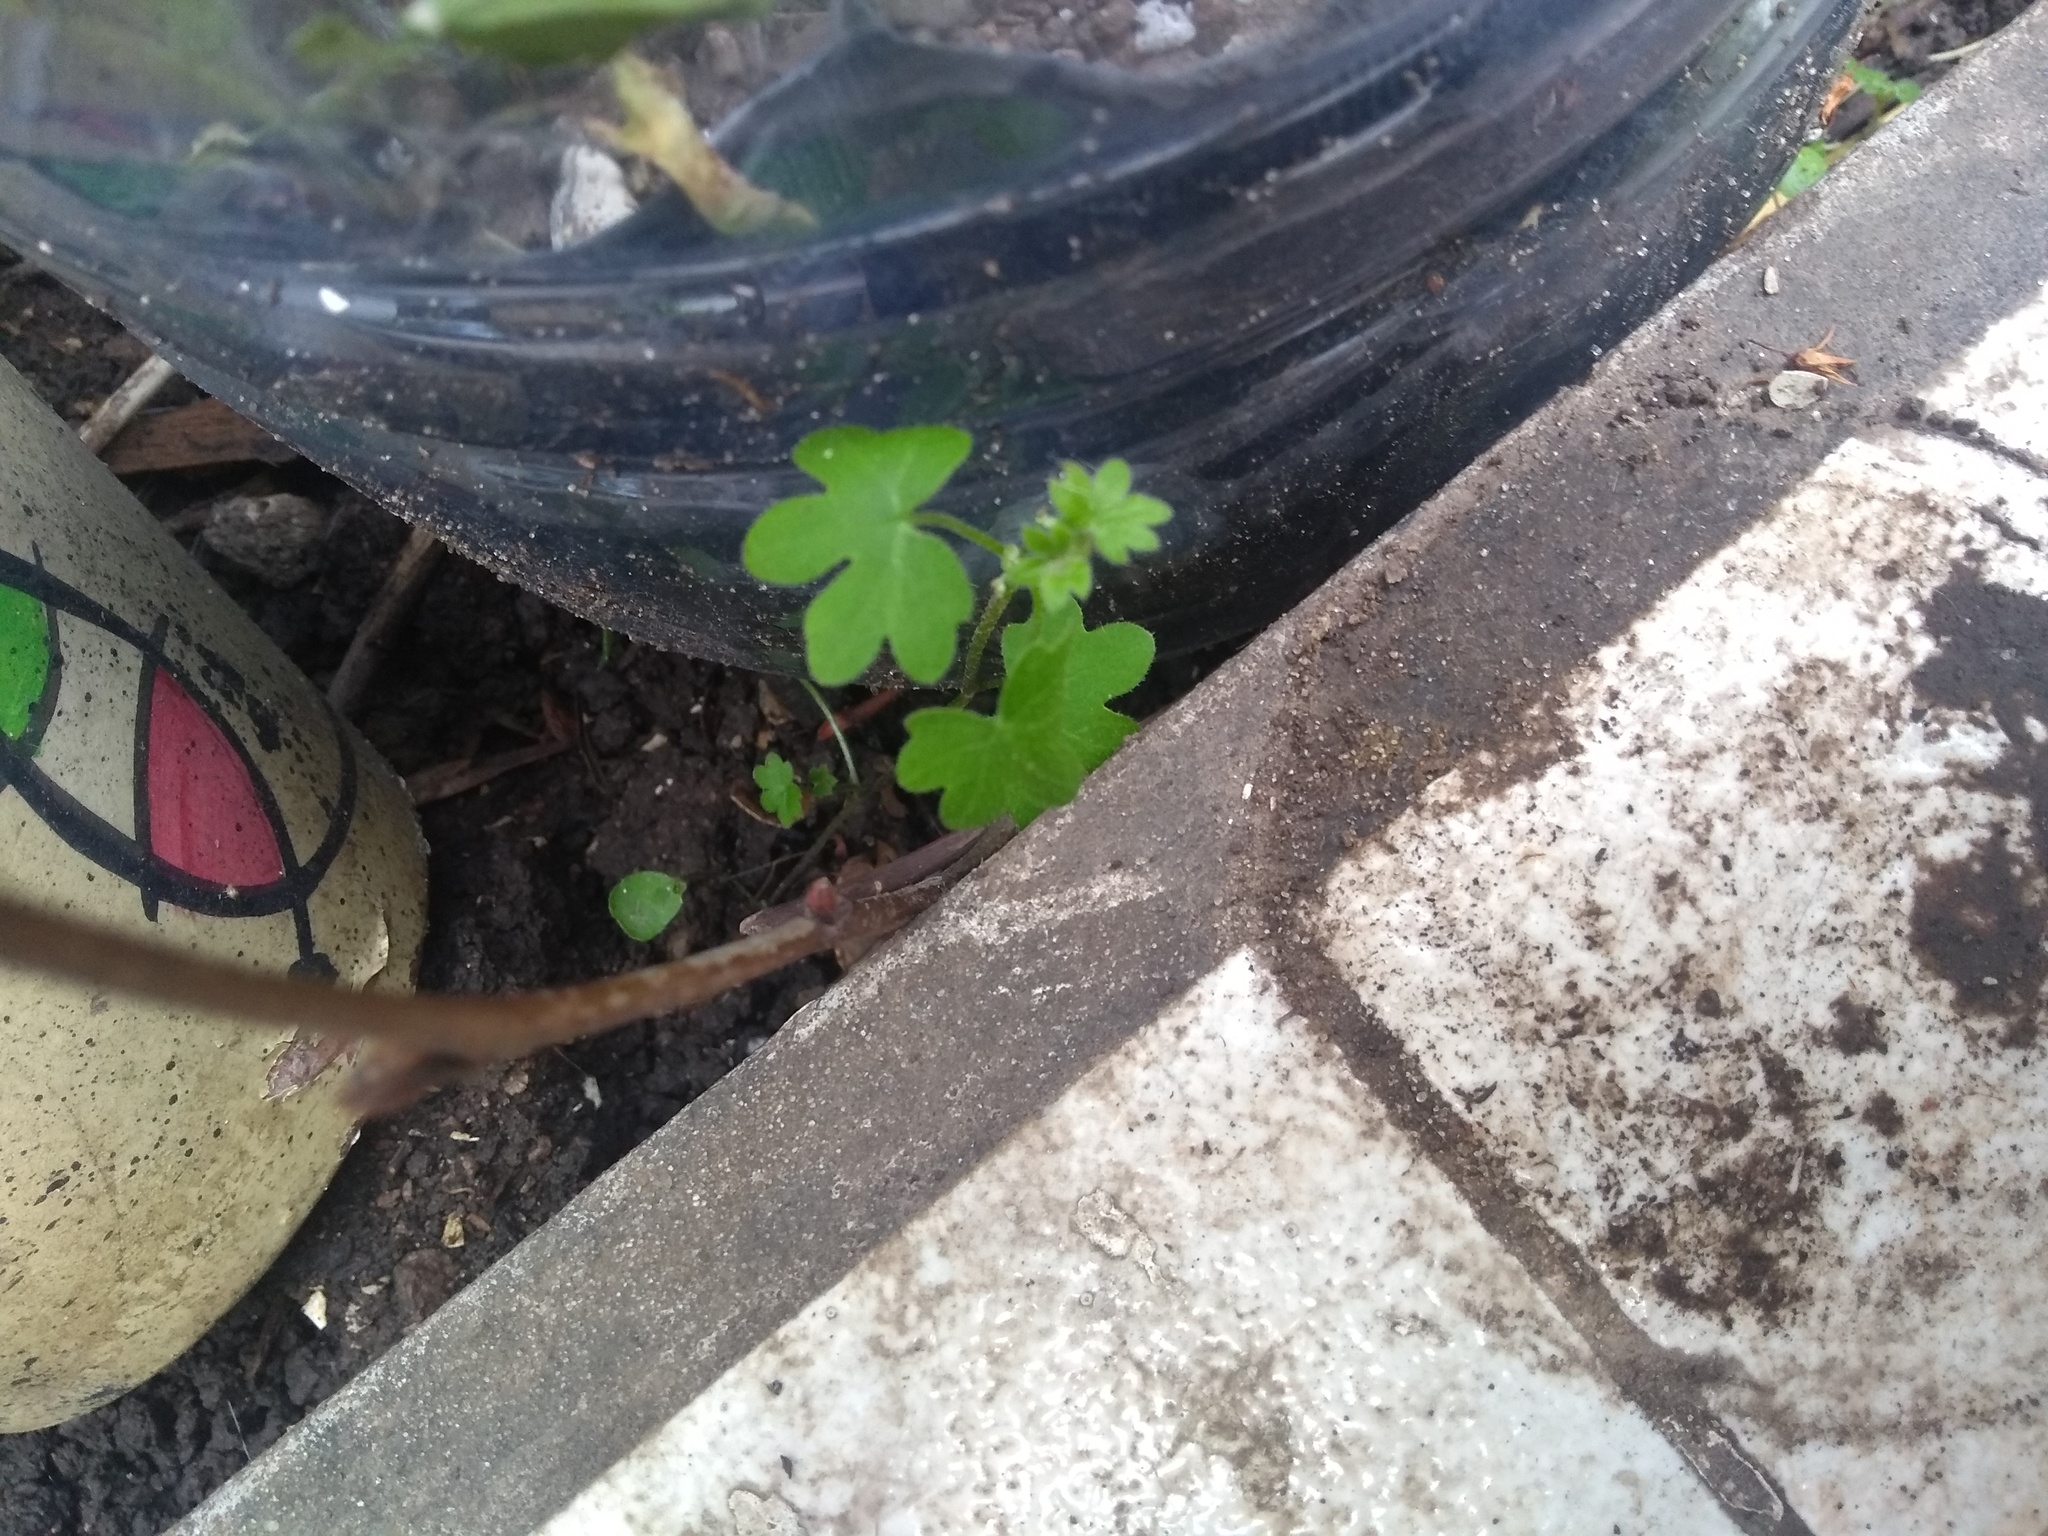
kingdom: Plantae
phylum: Tracheophyta
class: Magnoliopsida
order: Apiales
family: Apiaceae
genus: Bowlesia
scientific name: Bowlesia incana
